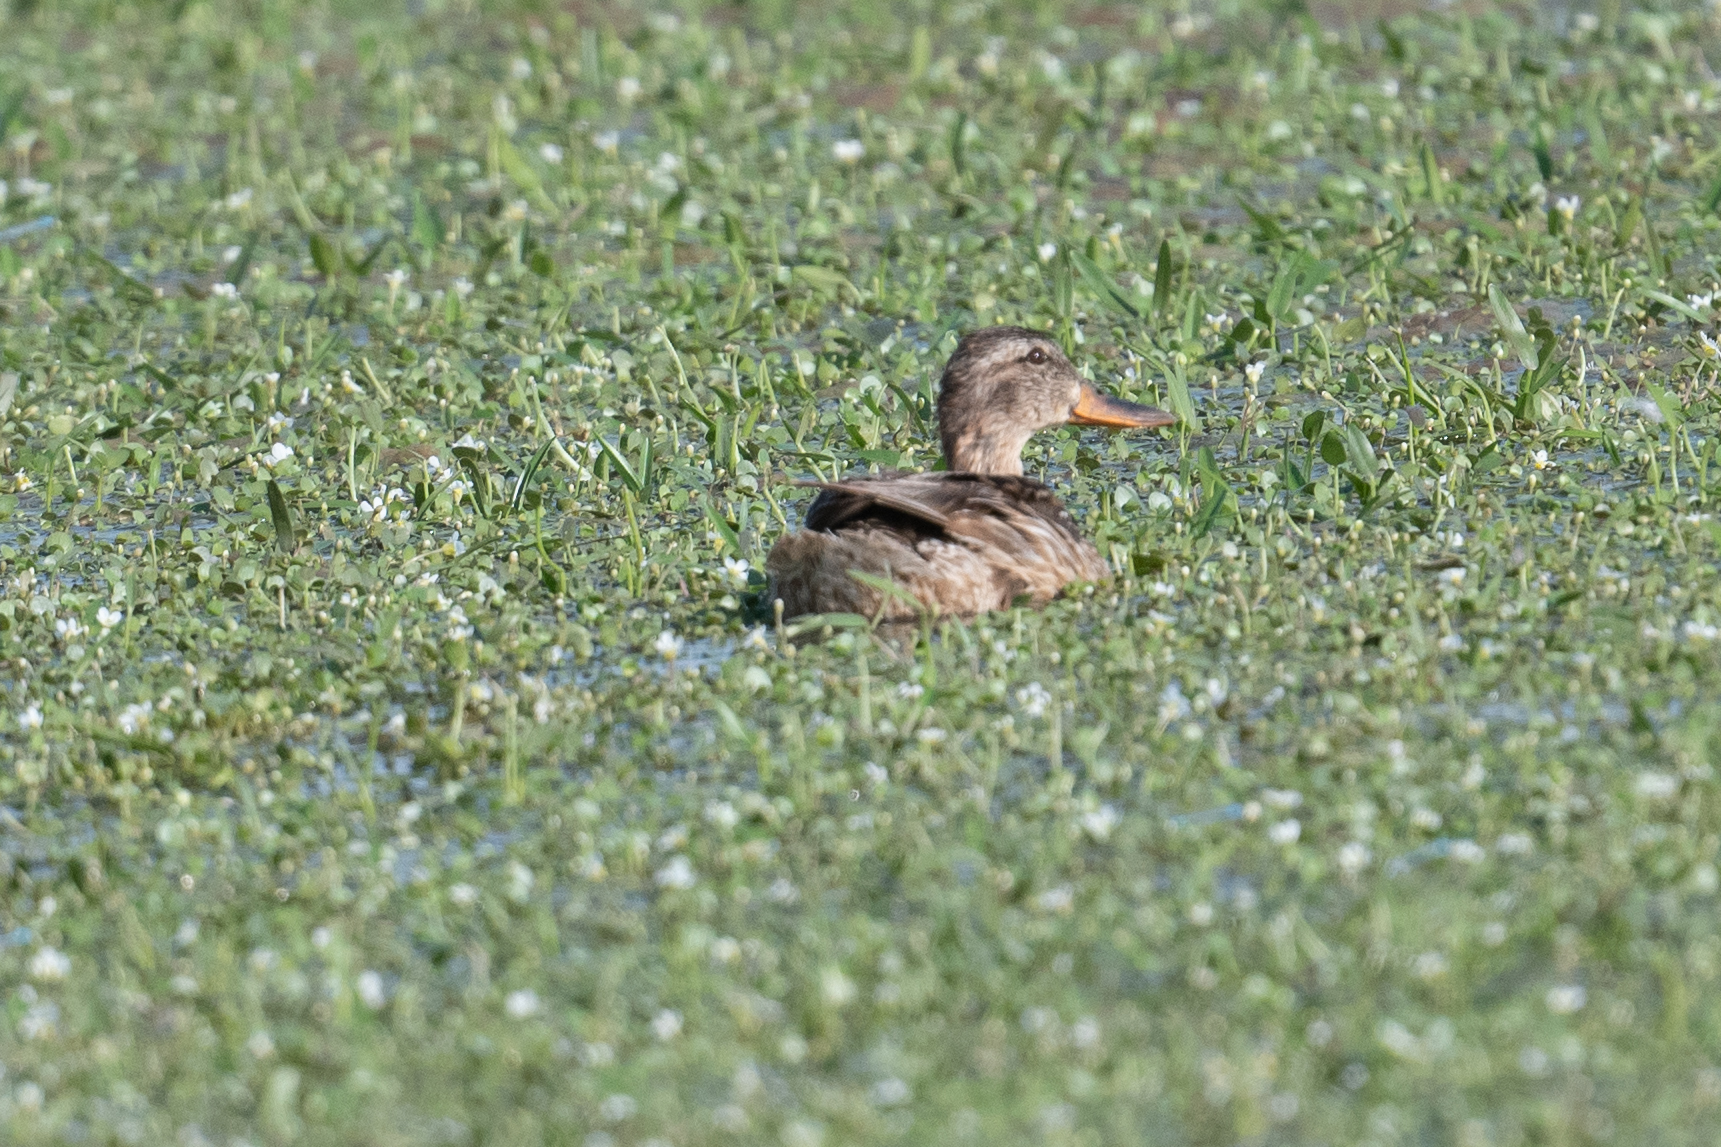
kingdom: Animalia
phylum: Chordata
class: Aves
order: Anseriformes
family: Anatidae
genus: Anas
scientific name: Anas platyrhynchos
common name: Mallard
